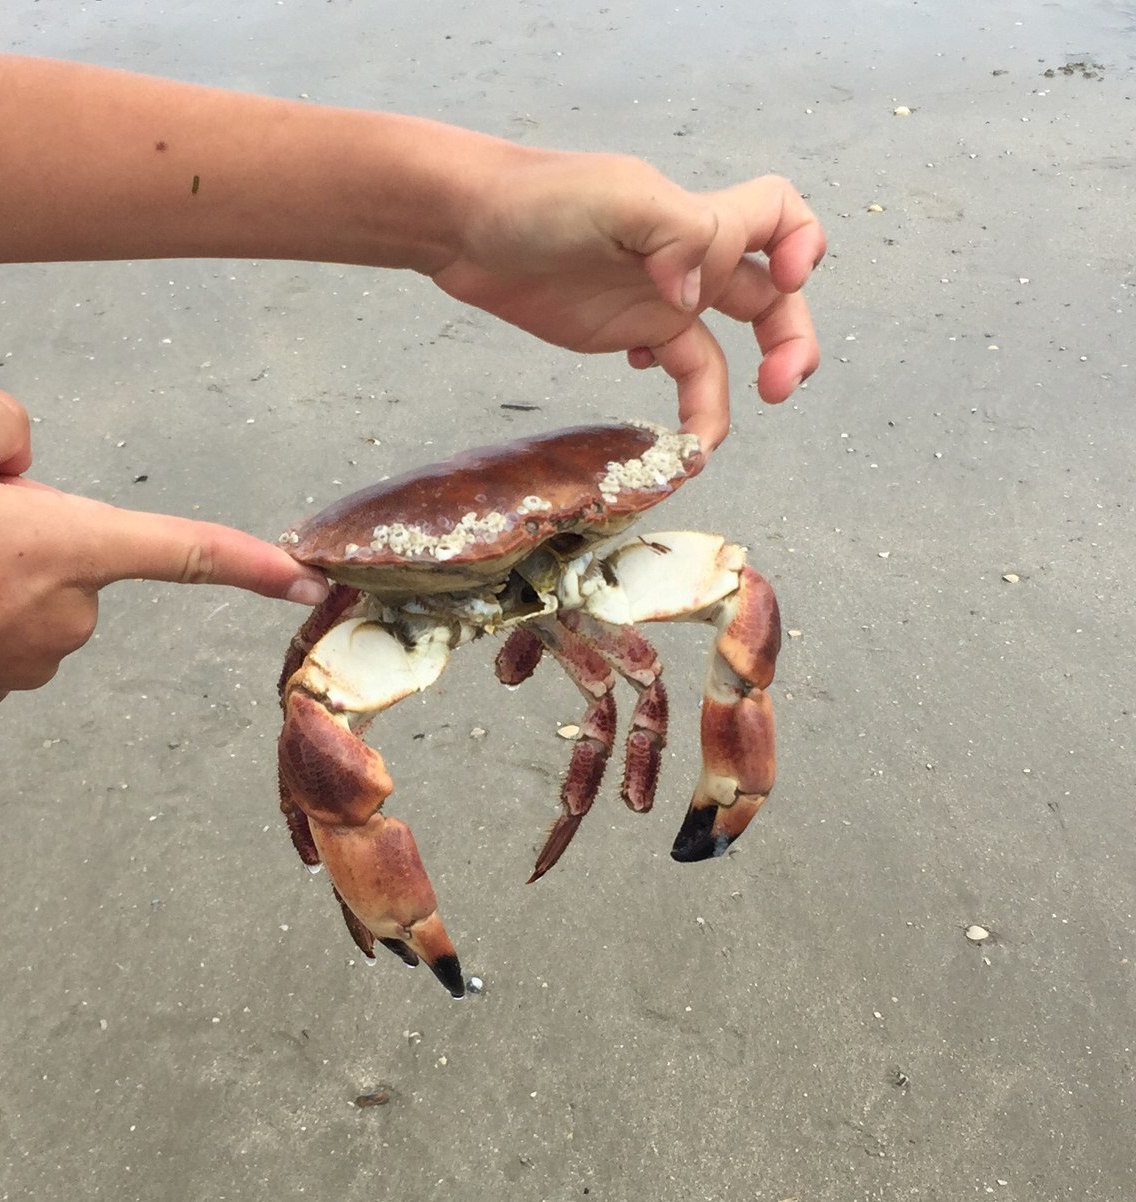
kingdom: Animalia
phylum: Arthropoda
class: Malacostraca
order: Decapoda
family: Cancridae
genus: Cancer
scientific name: Cancer pagurus
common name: Edible crab
